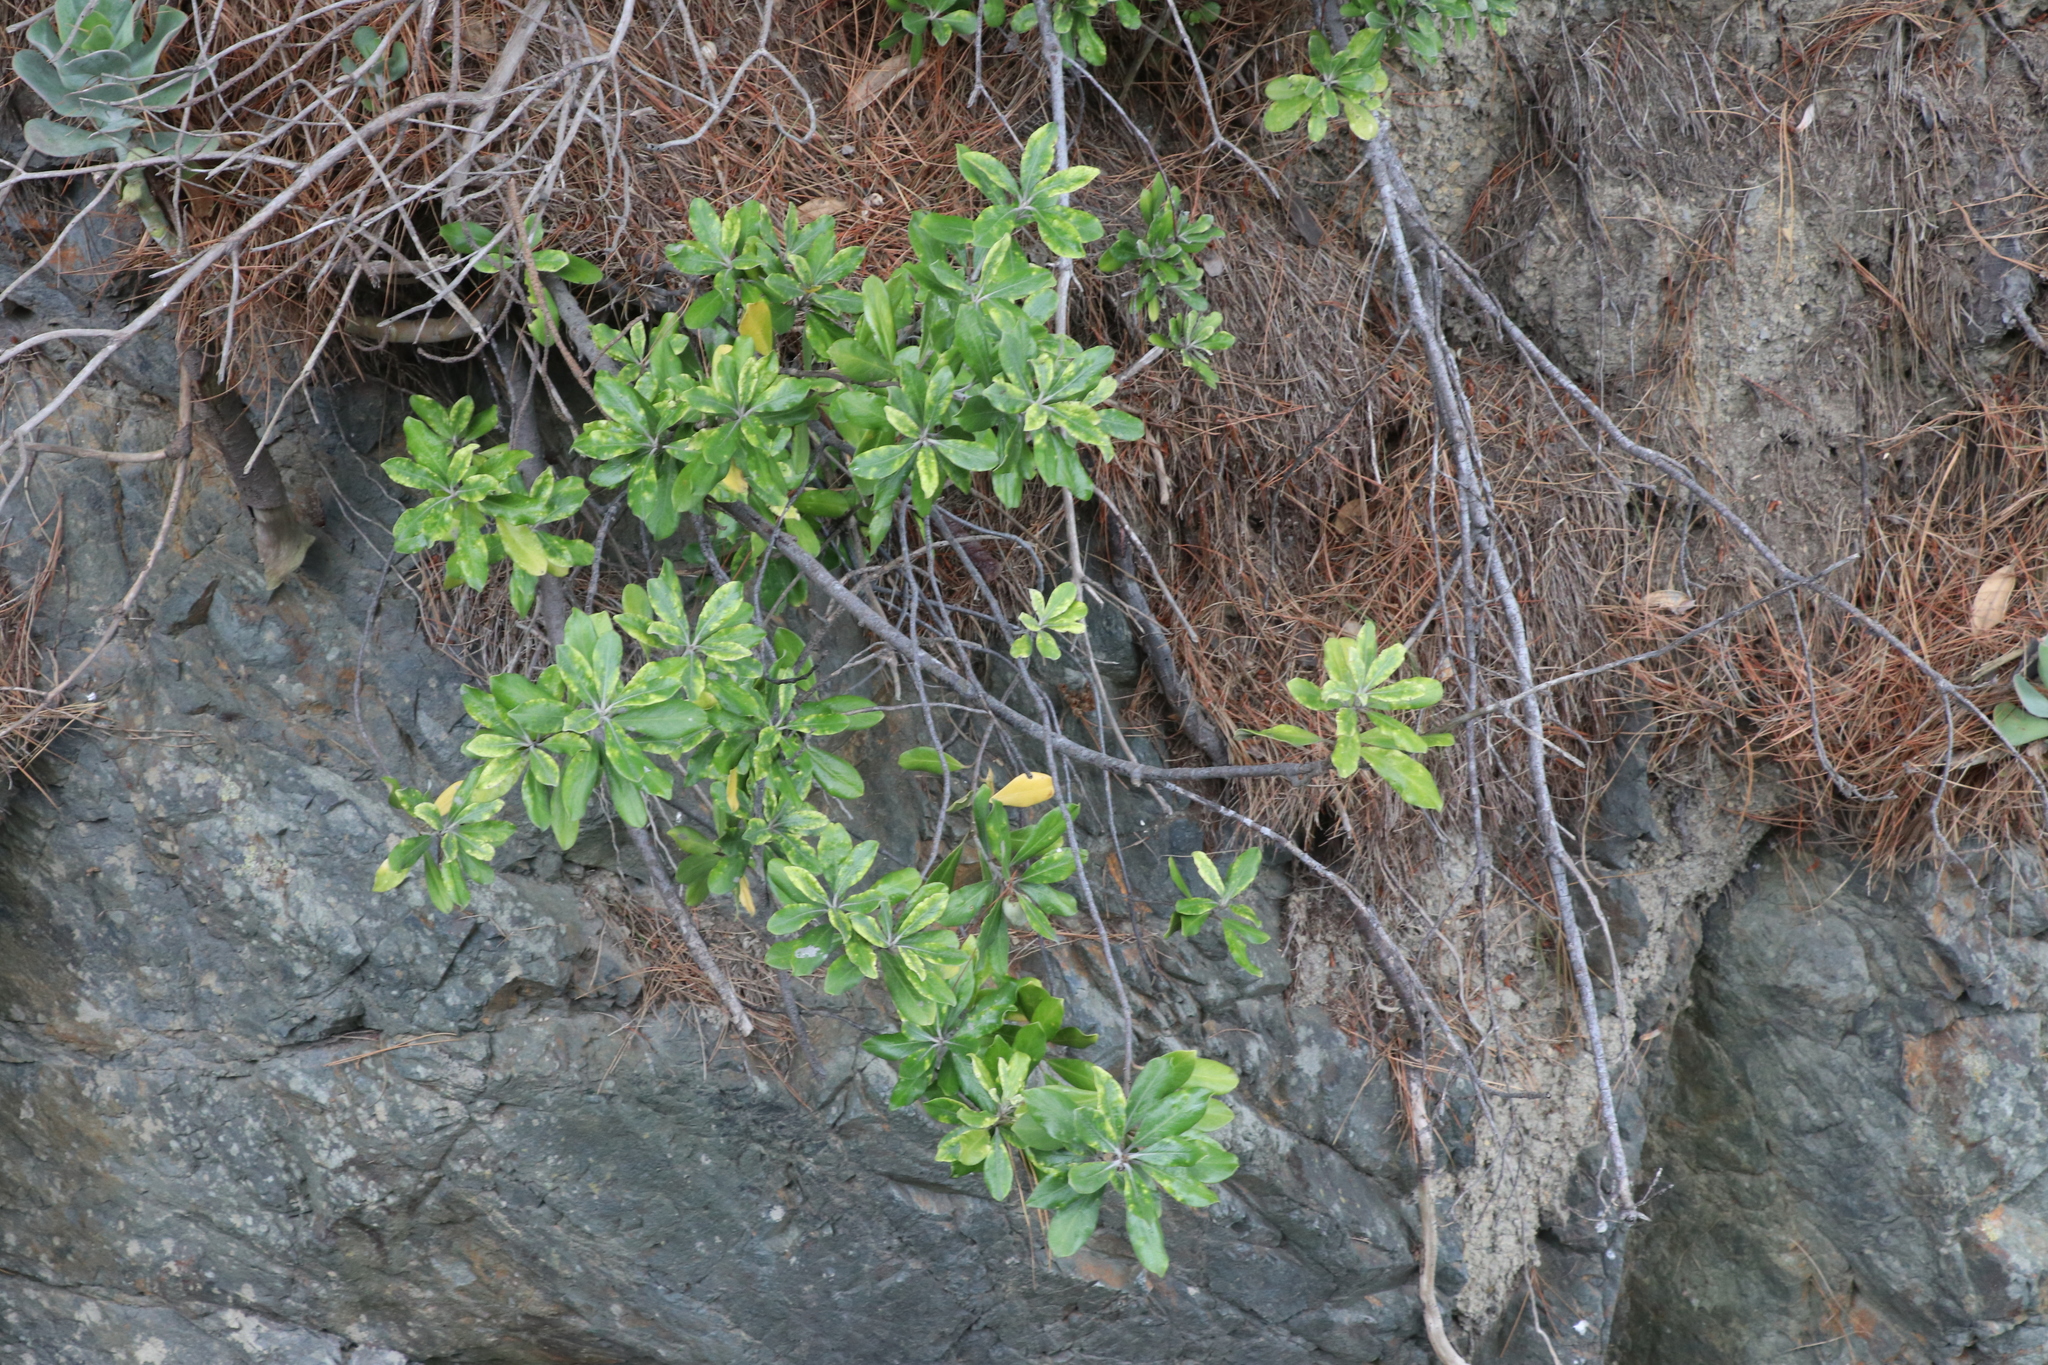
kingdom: Plantae
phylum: Tracheophyta
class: Magnoliopsida
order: Apiales
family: Pittosporaceae
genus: Pittosporum
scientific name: Pittosporum crassifolium
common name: Karo
